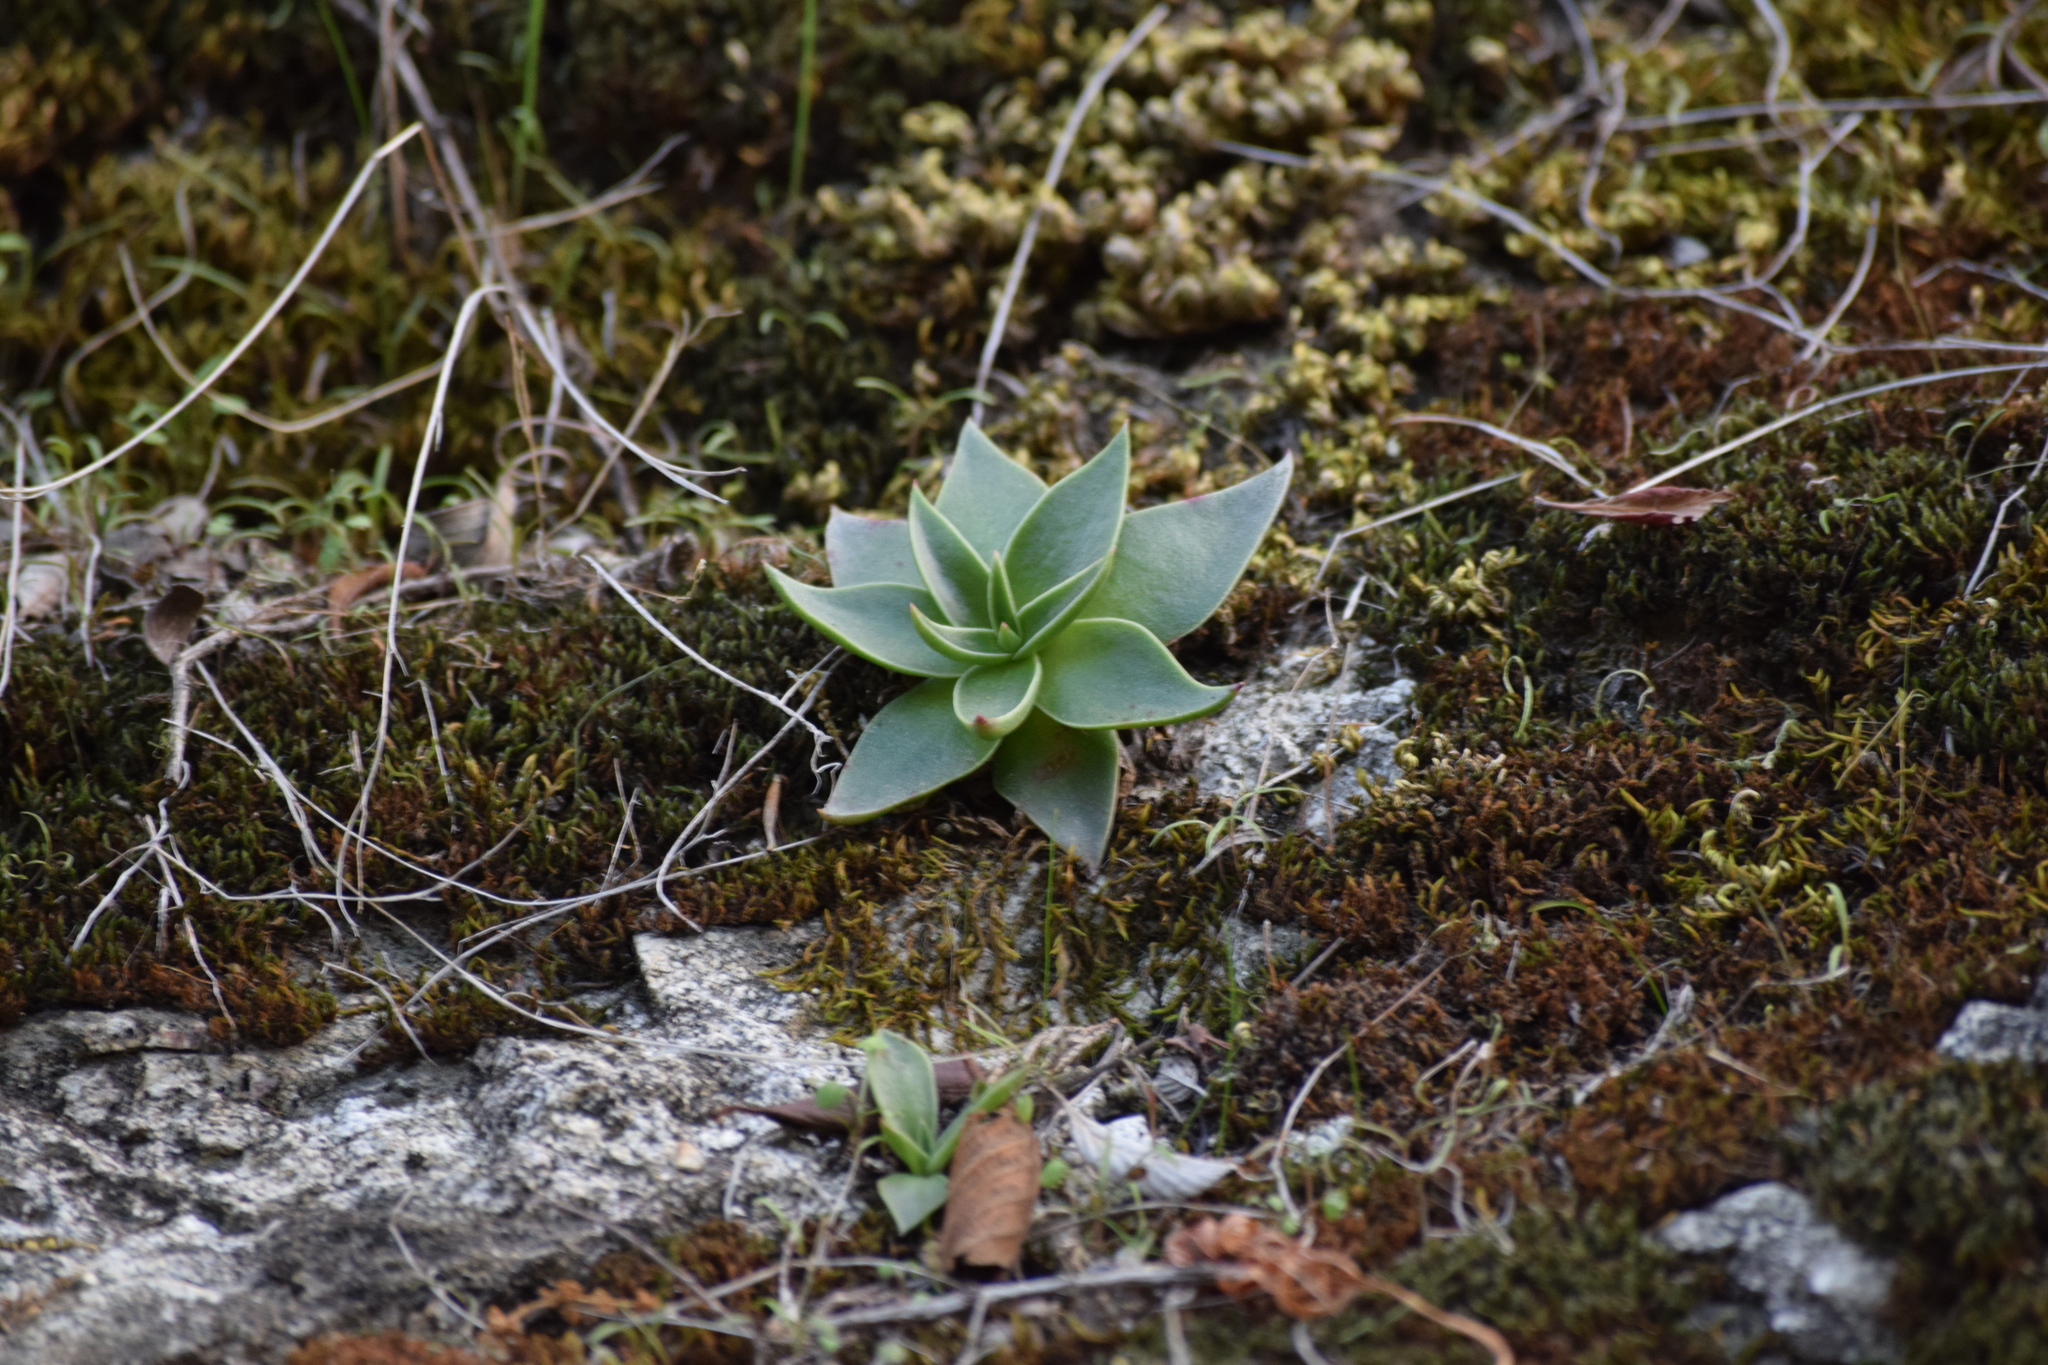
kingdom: Plantae
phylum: Tracheophyta
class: Magnoliopsida
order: Saxifragales
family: Crassulaceae
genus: Dudleya
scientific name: Dudleya cymosa
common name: Canyon dudleya
